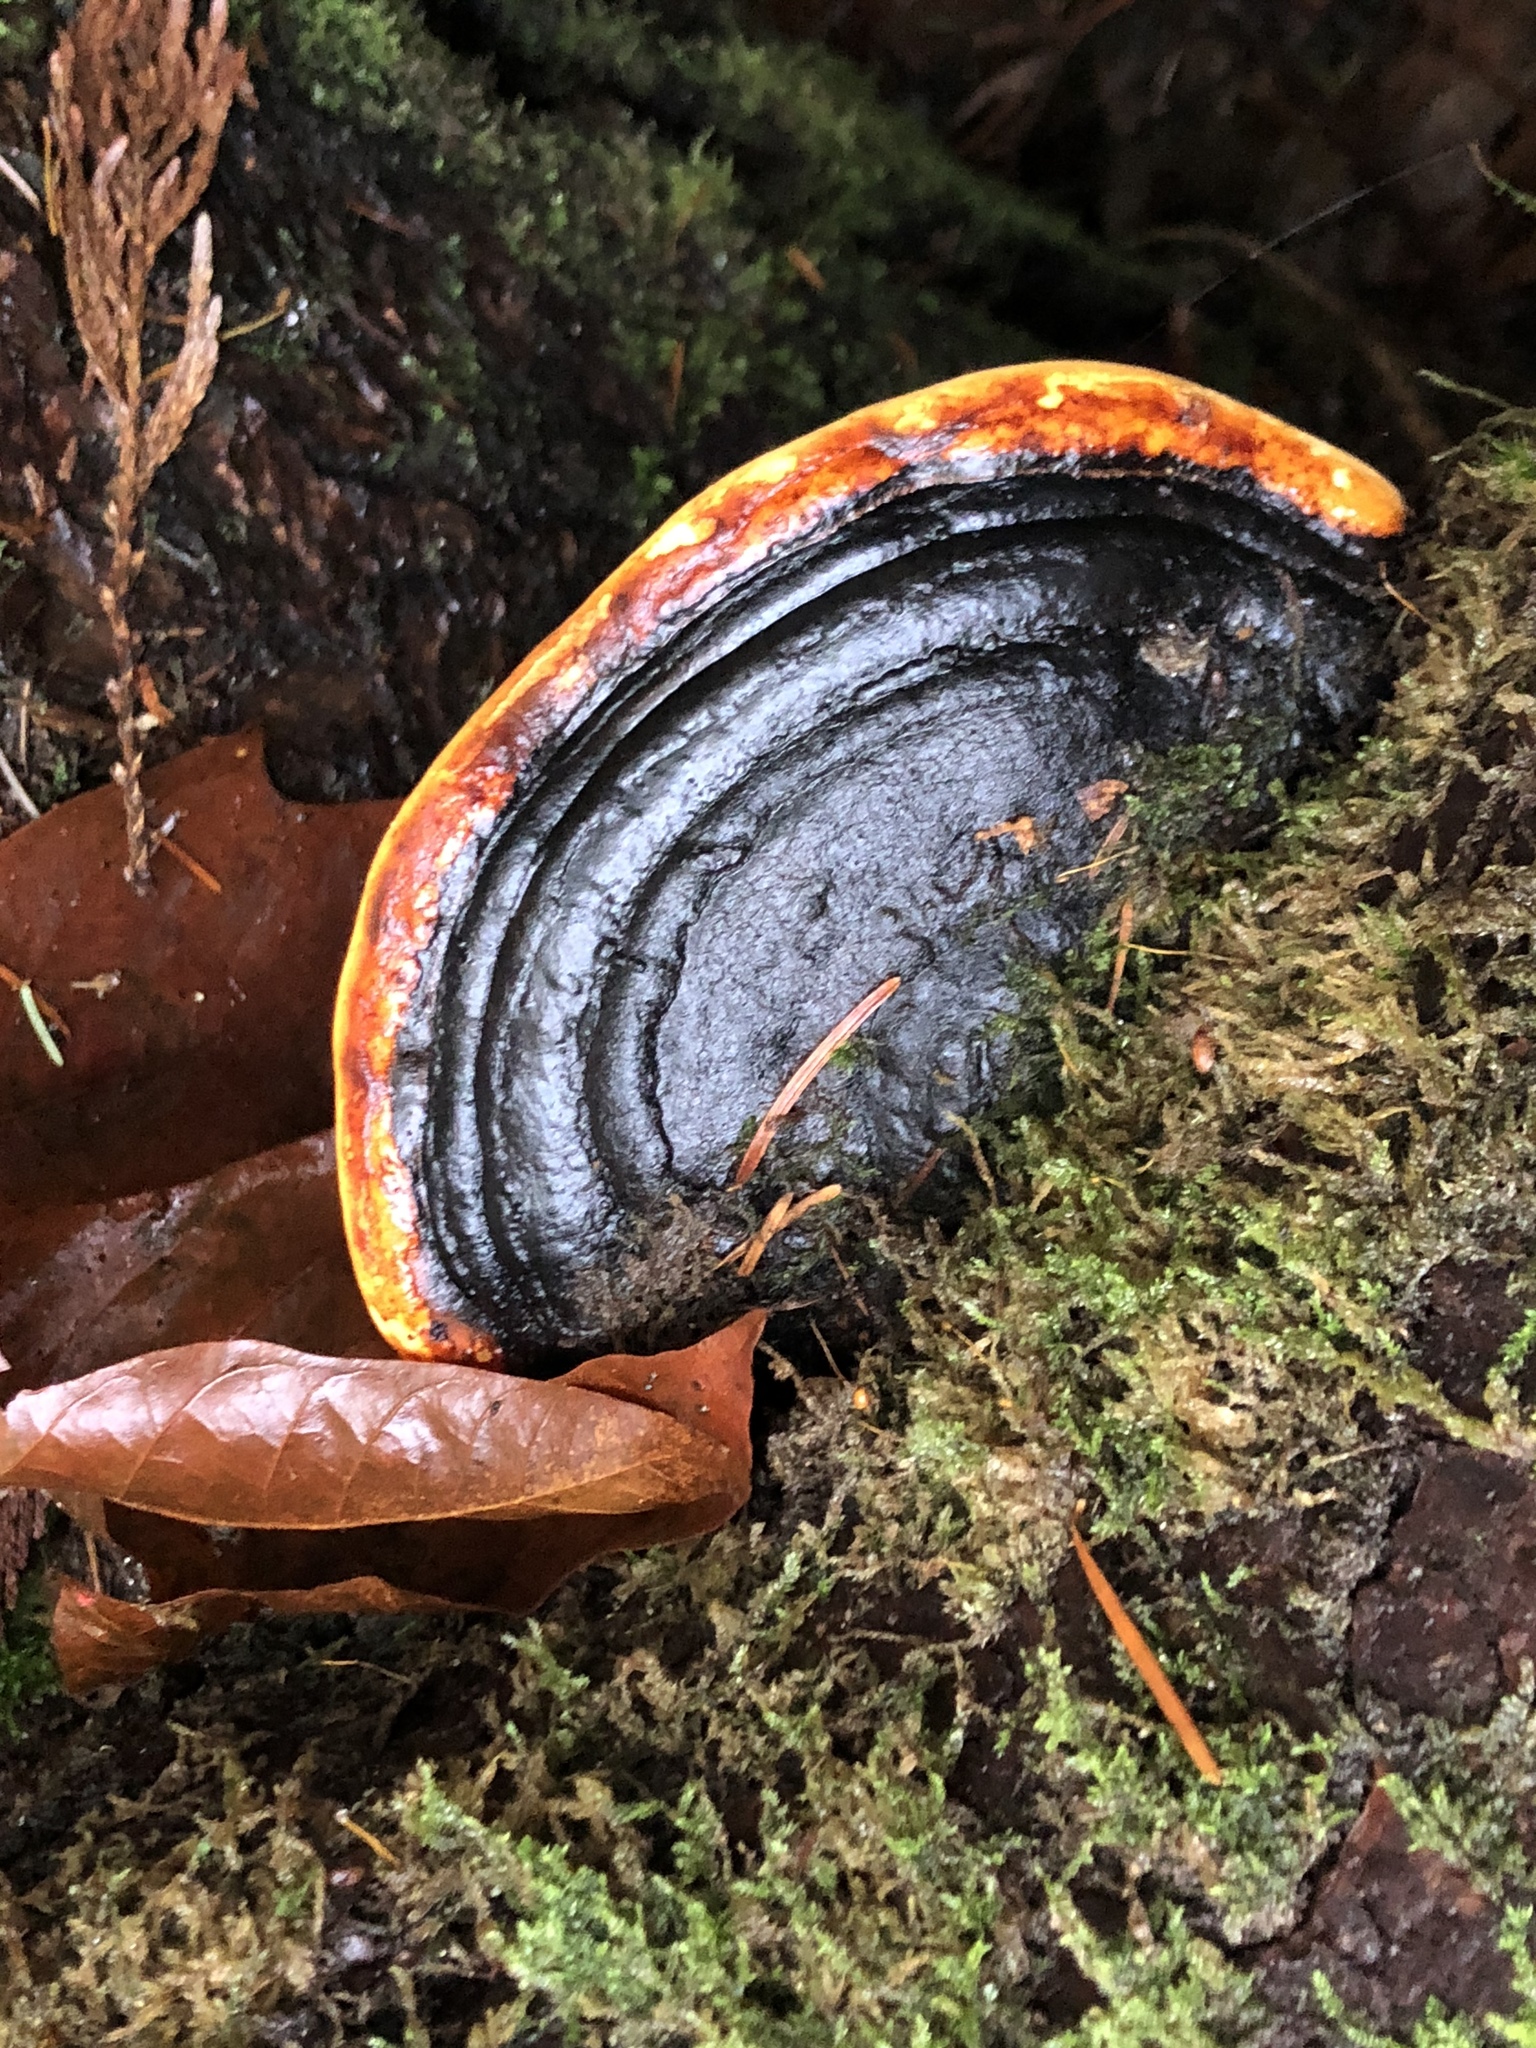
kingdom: Fungi
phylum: Basidiomycota
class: Agaricomycetes
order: Polyporales
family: Fomitopsidaceae
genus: Fomitopsis
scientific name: Fomitopsis mounceae
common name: Northern red belt
